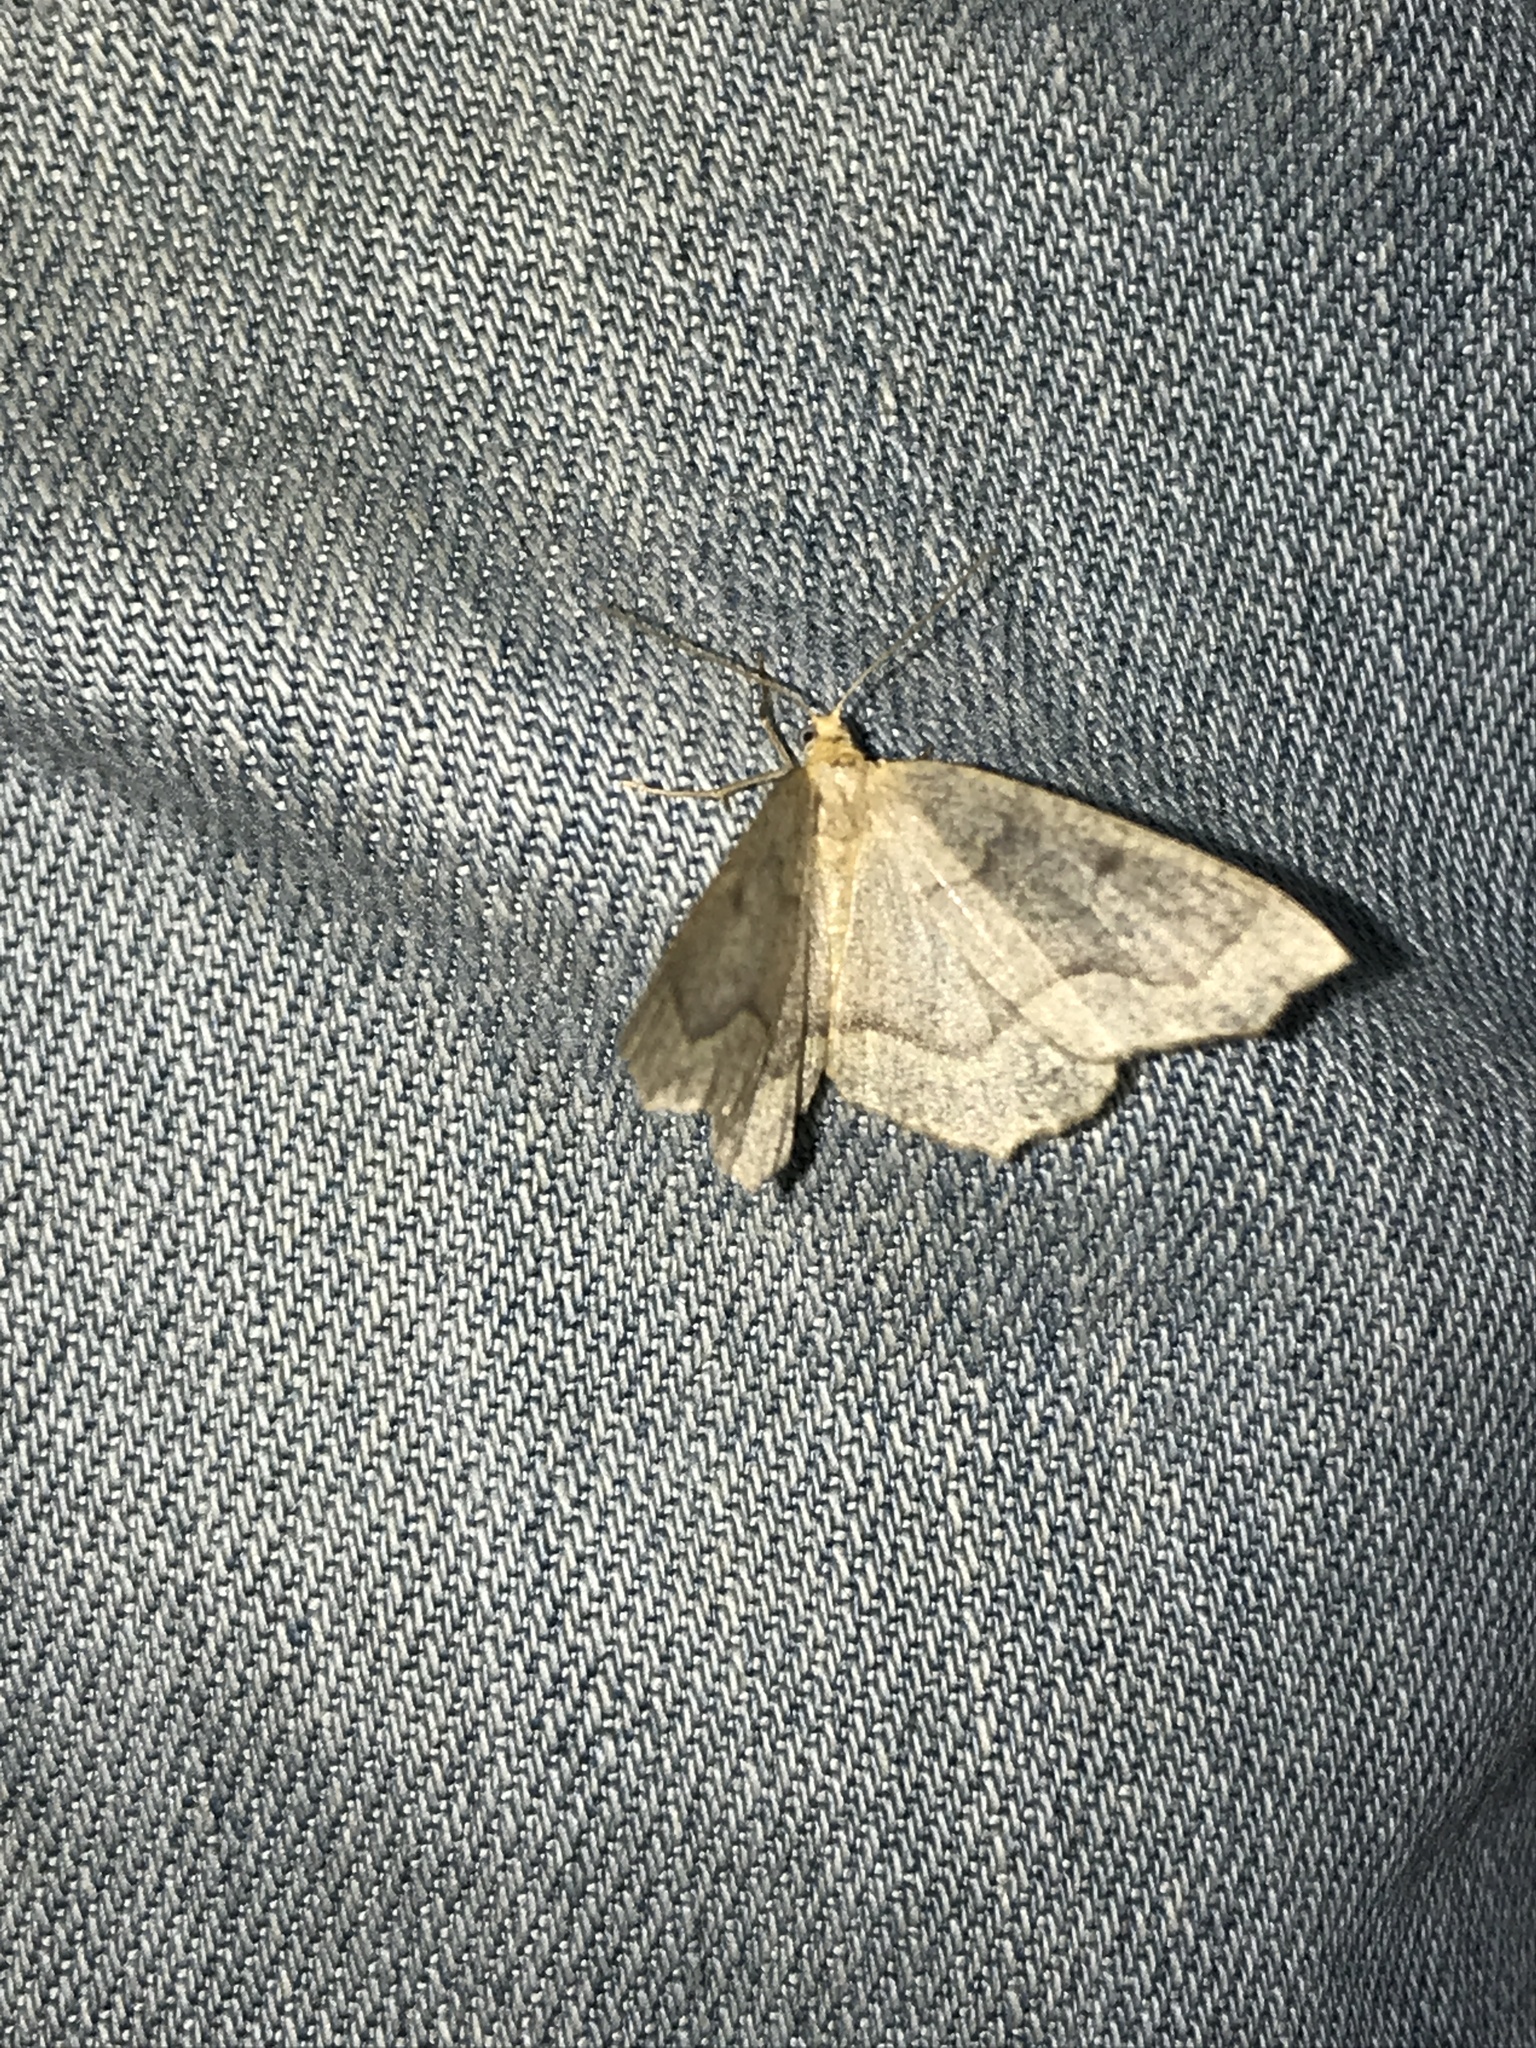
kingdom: Animalia
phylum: Arthropoda
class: Insecta
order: Lepidoptera
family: Geometridae
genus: Lambdina
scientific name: Lambdina fiscellaria
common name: Hemlock looper
